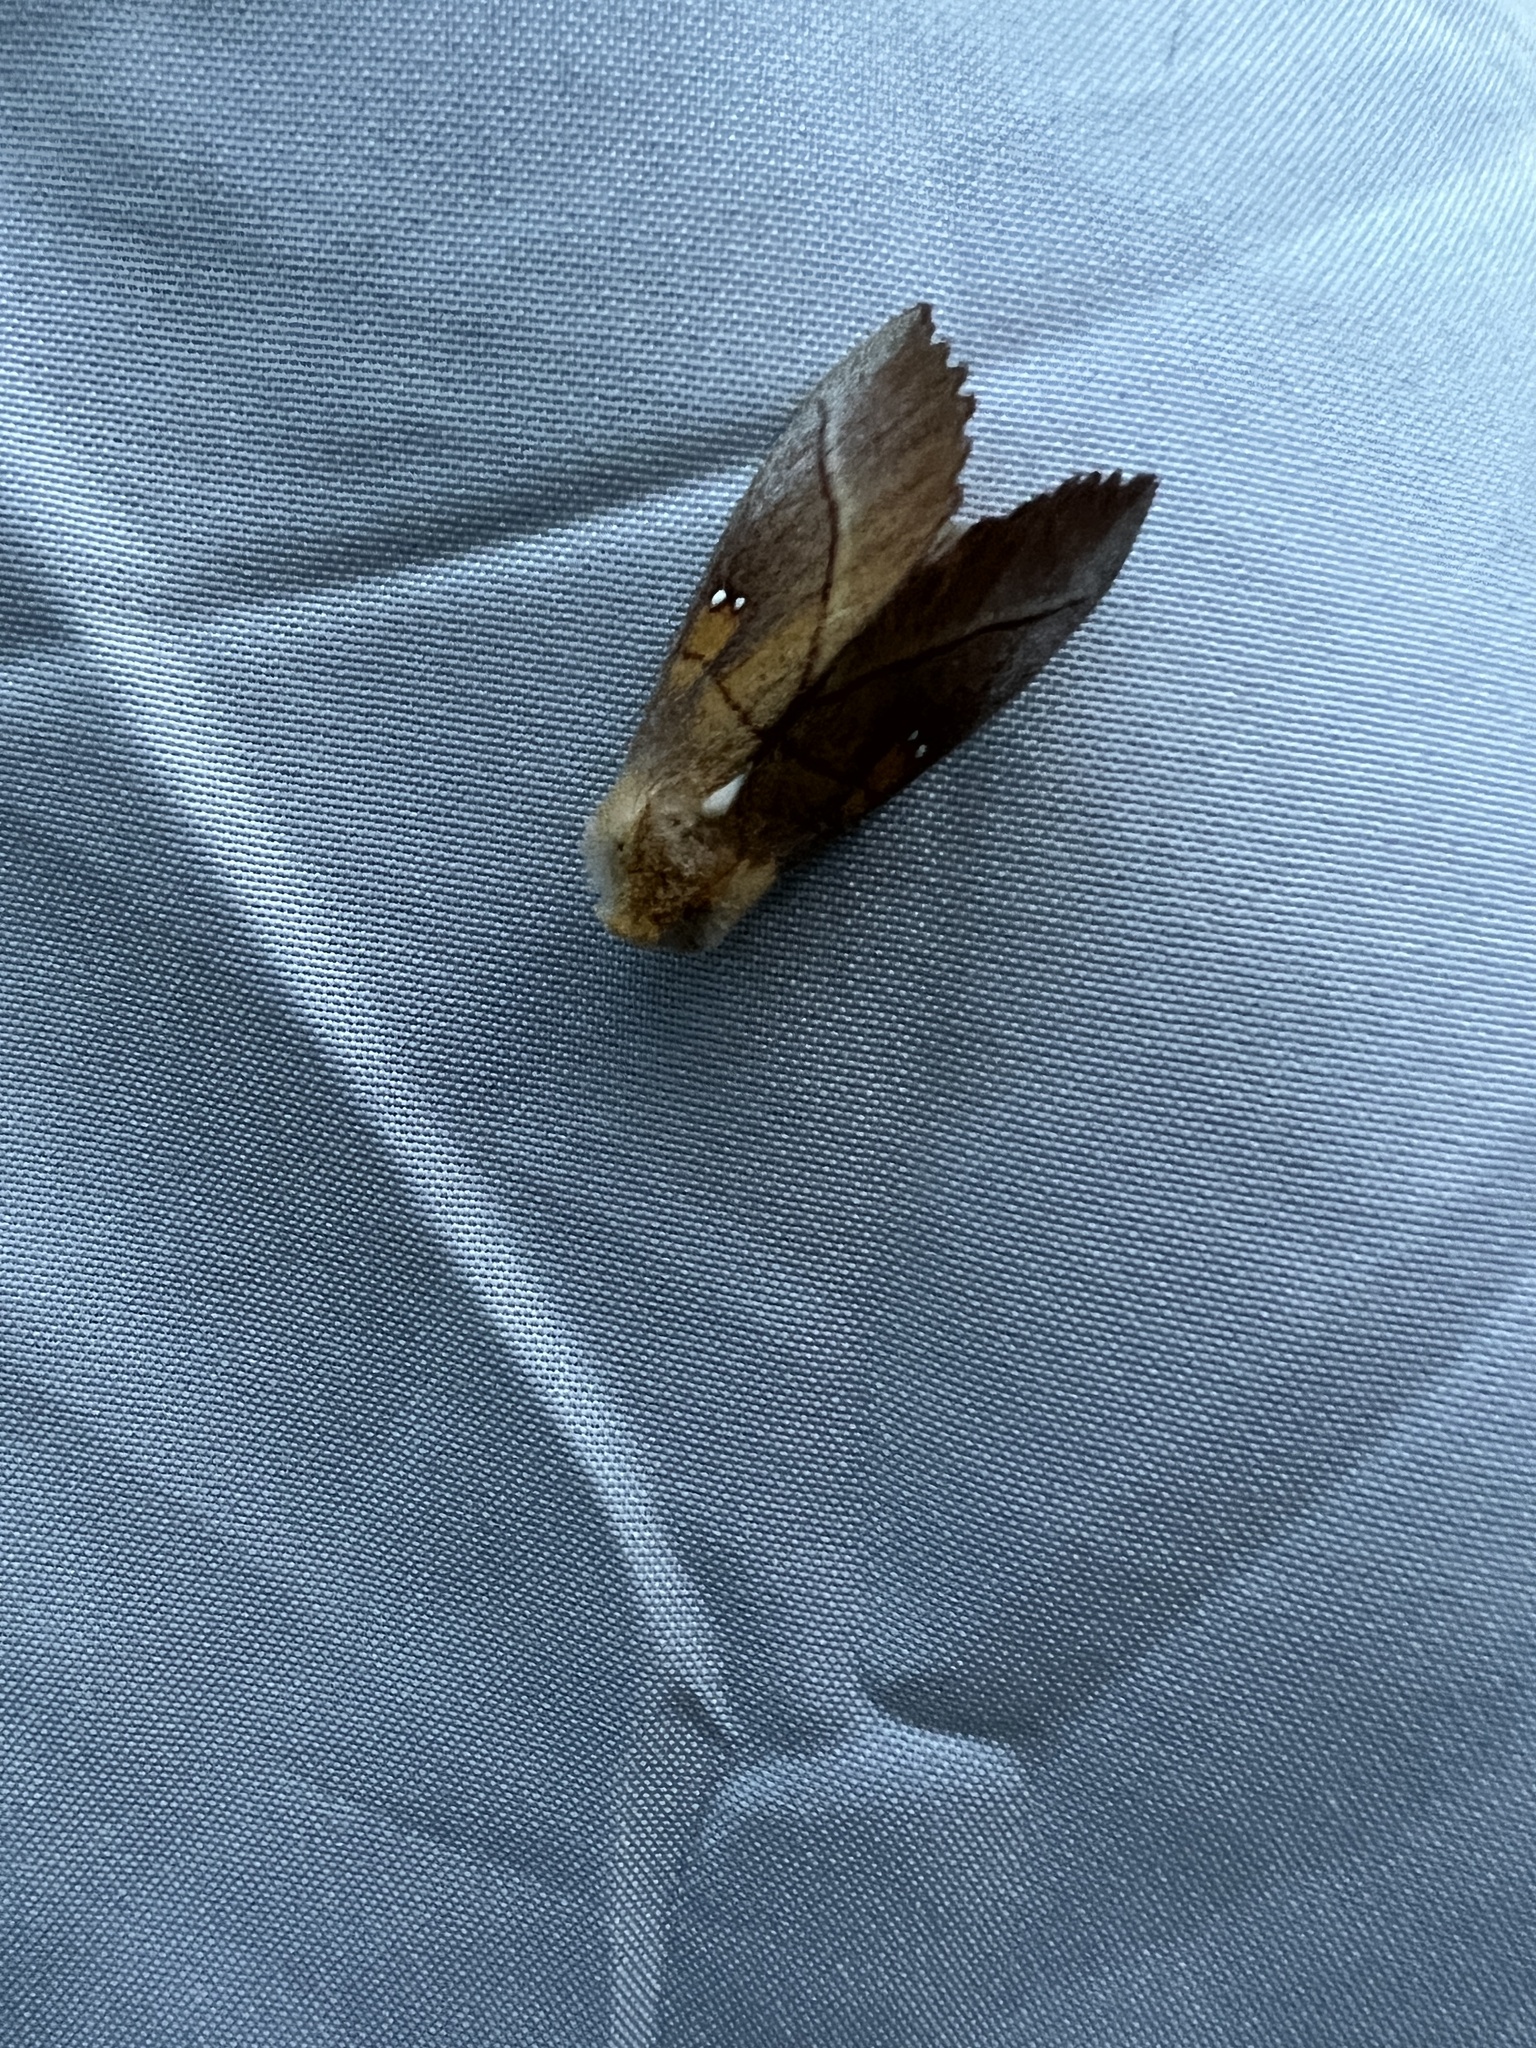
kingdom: Animalia
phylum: Arthropoda
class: Insecta
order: Lepidoptera
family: Notodontidae
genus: Nadata
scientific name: Nadata gibbosa
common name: White-dotted prominent
